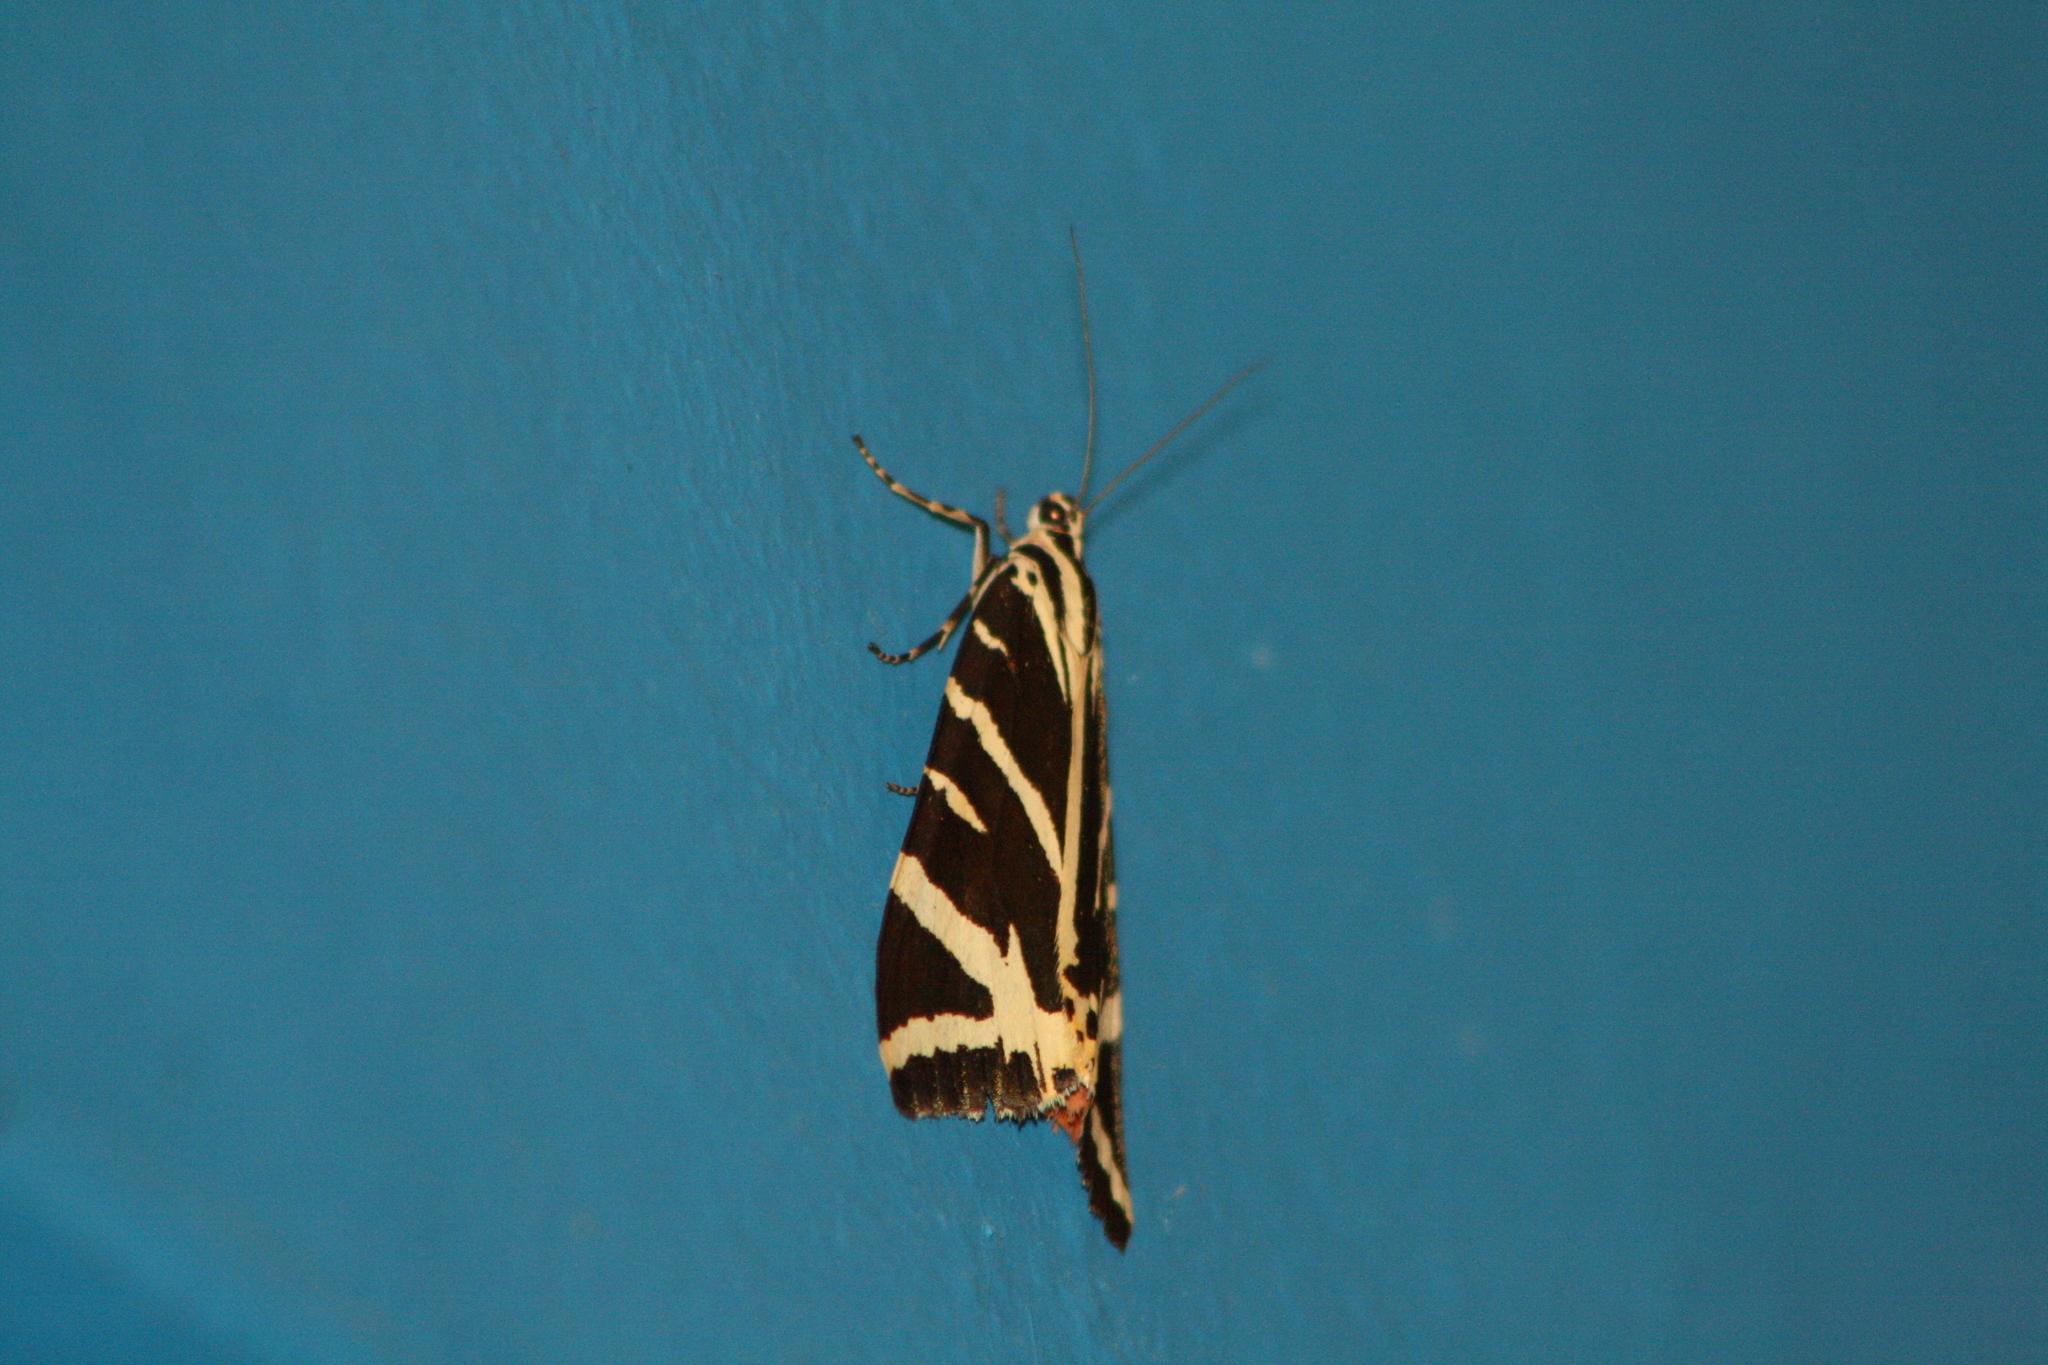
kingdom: Animalia
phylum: Arthropoda
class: Insecta
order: Lepidoptera
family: Erebidae
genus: Euplagia
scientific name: Euplagia quadripunctaria
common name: Jersey tiger
